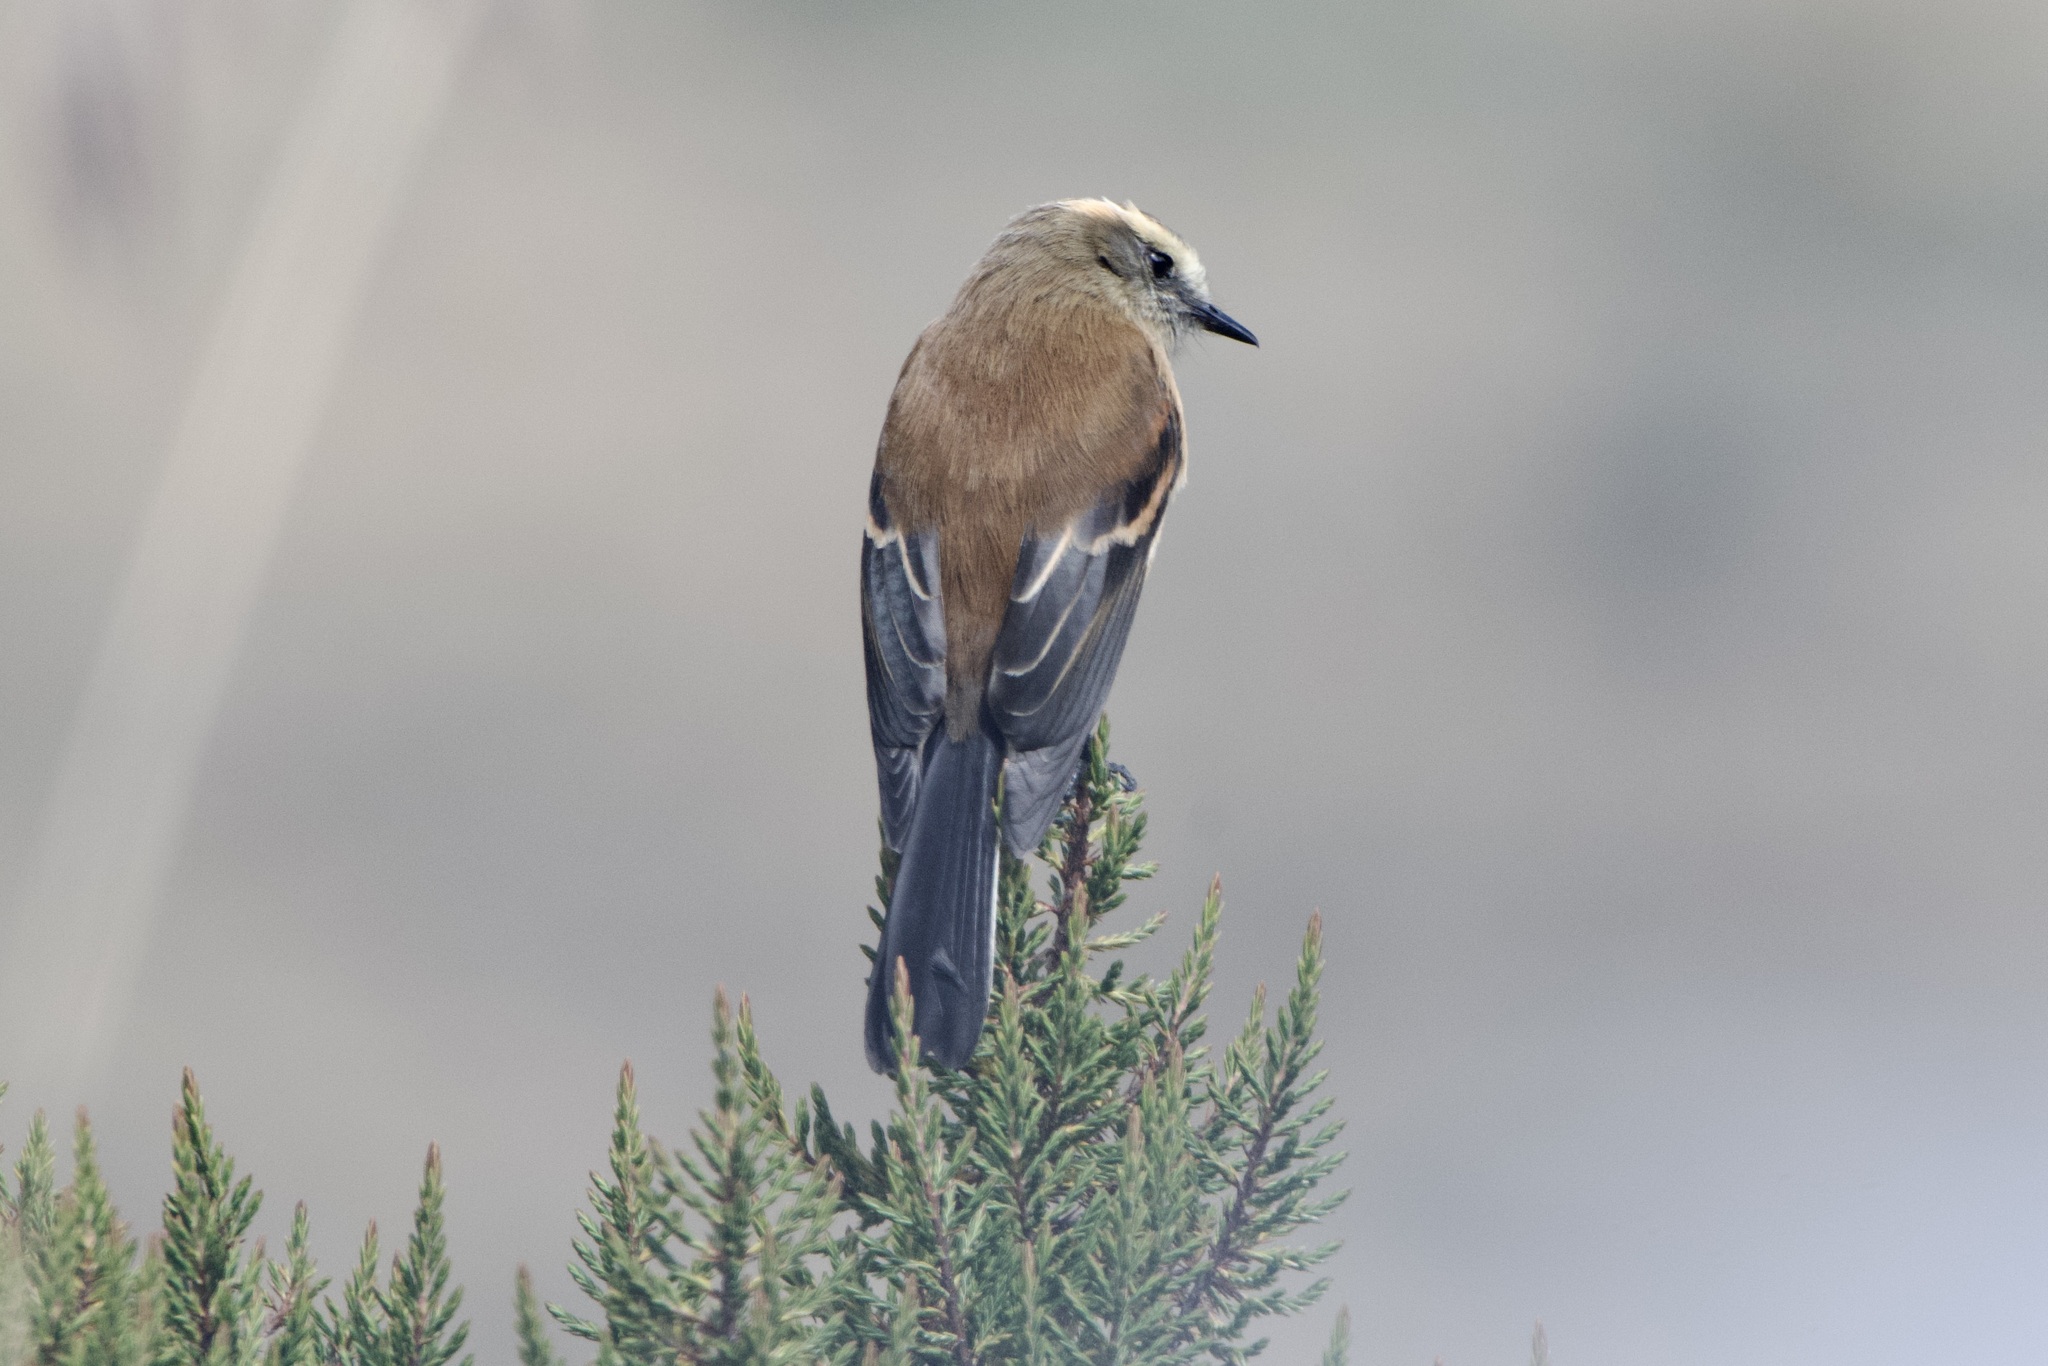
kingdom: Animalia
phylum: Chordata
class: Aves
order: Passeriformes
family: Tyrannidae
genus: Ochthoeca
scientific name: Ochthoeca fumicolor
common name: Brown-backed chat-tyrant
